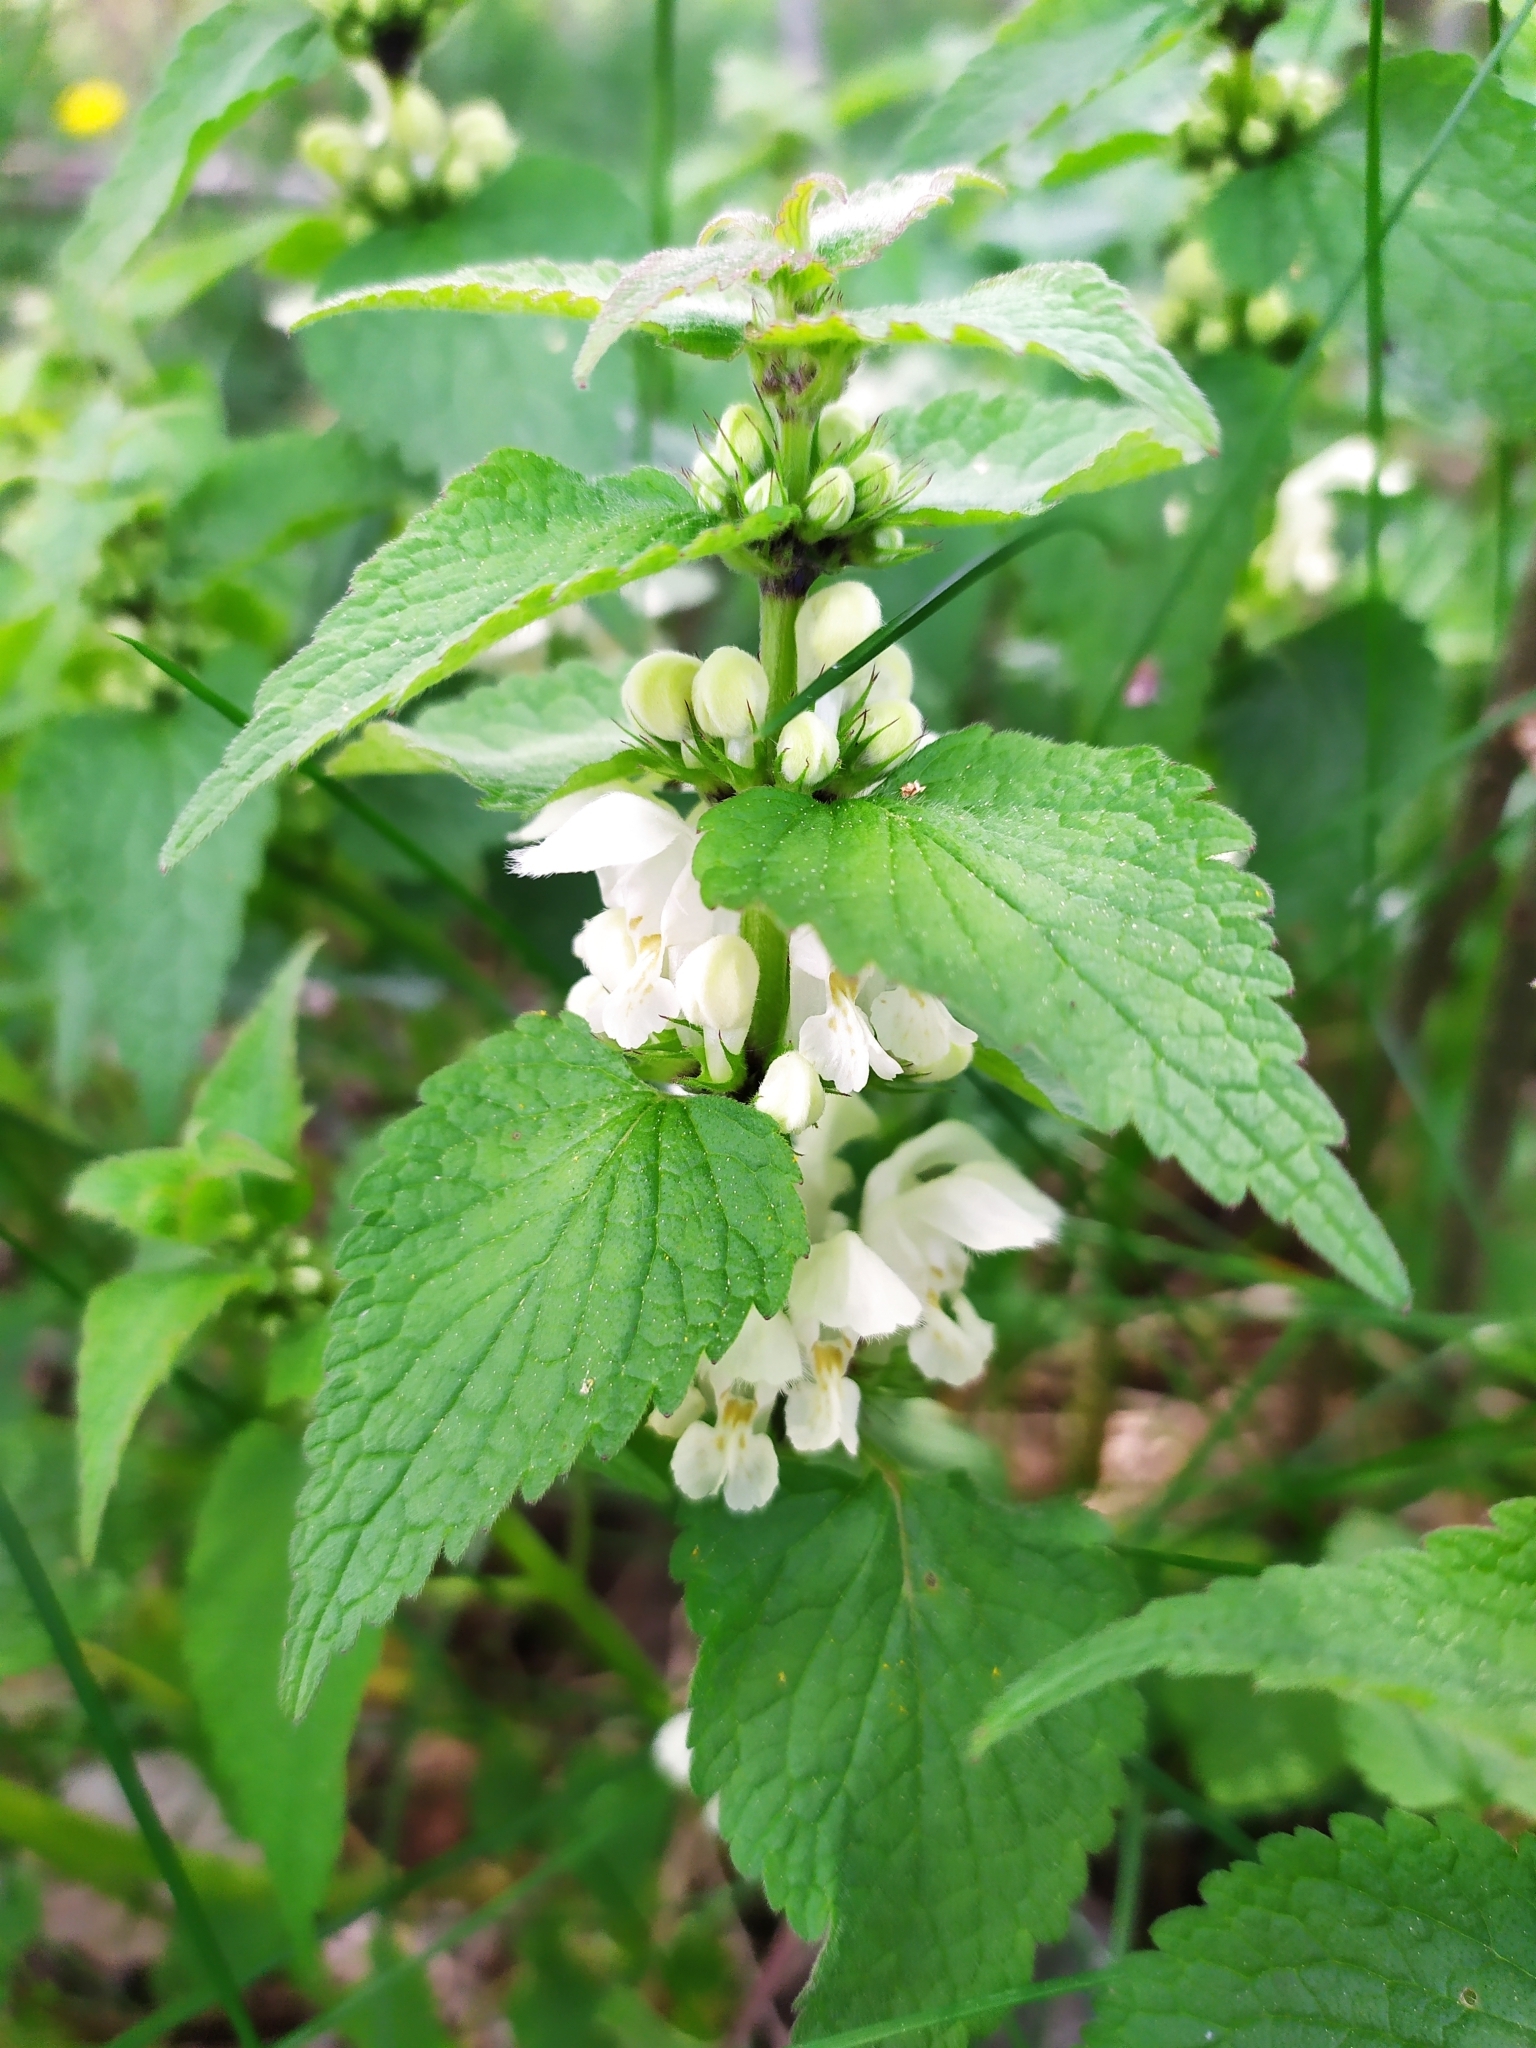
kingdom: Plantae
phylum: Tracheophyta
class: Magnoliopsida
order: Lamiales
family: Lamiaceae
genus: Lamium
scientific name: Lamium album
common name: White dead-nettle
